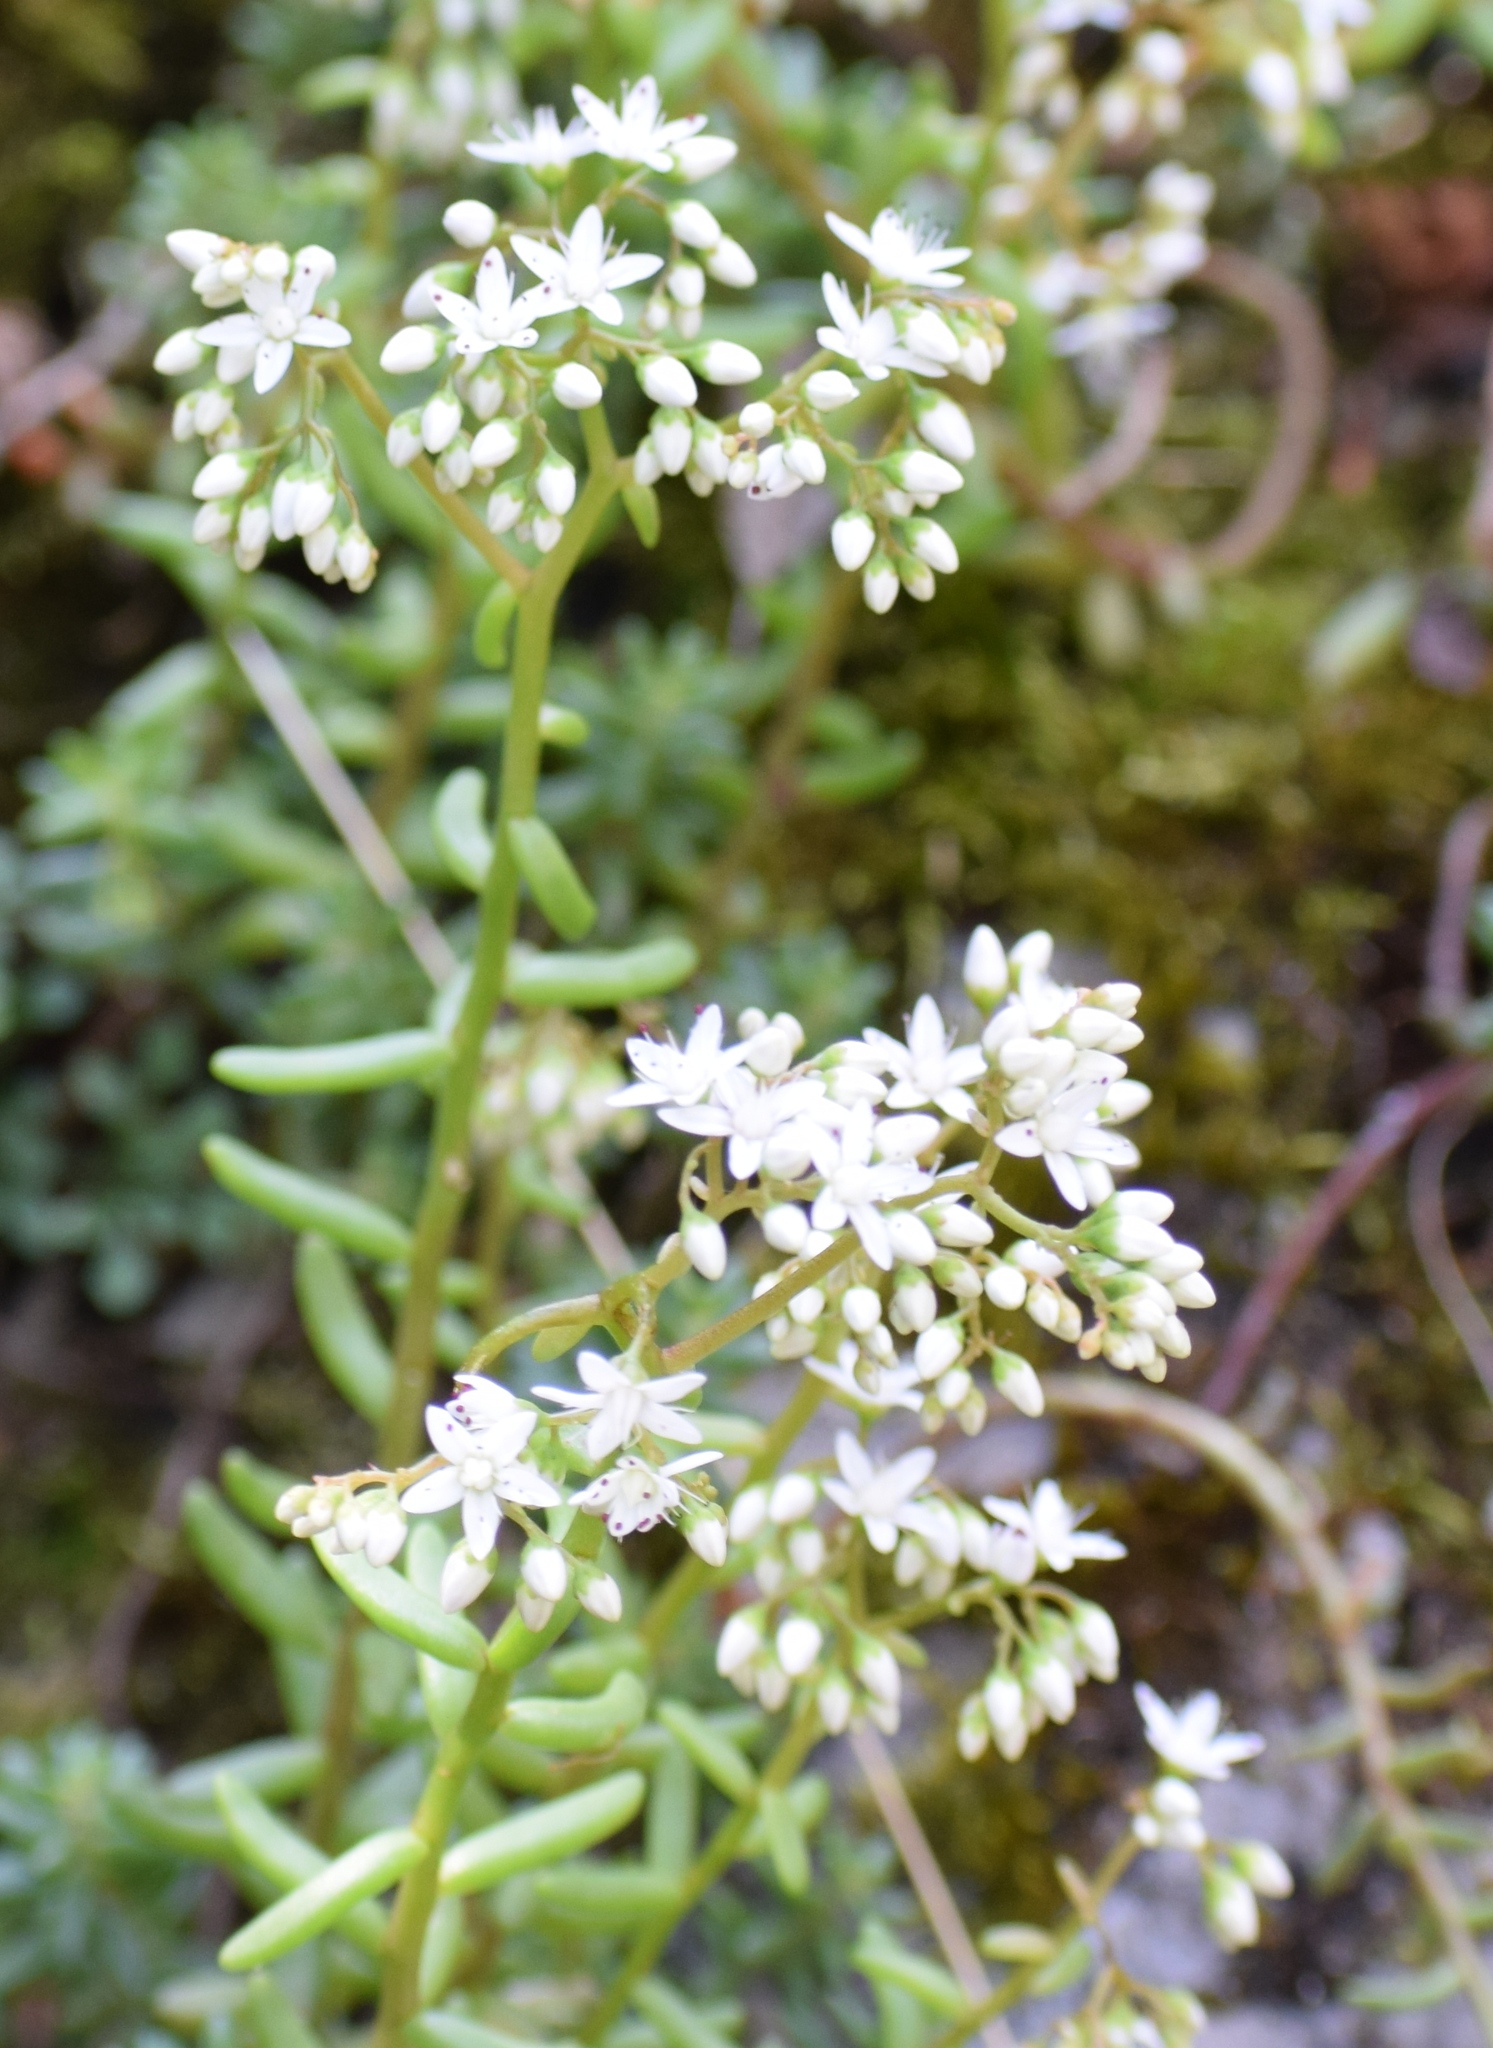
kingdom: Plantae
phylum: Tracheophyta
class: Magnoliopsida
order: Saxifragales
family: Crassulaceae
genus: Sedum
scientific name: Sedum album
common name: White stonecrop
